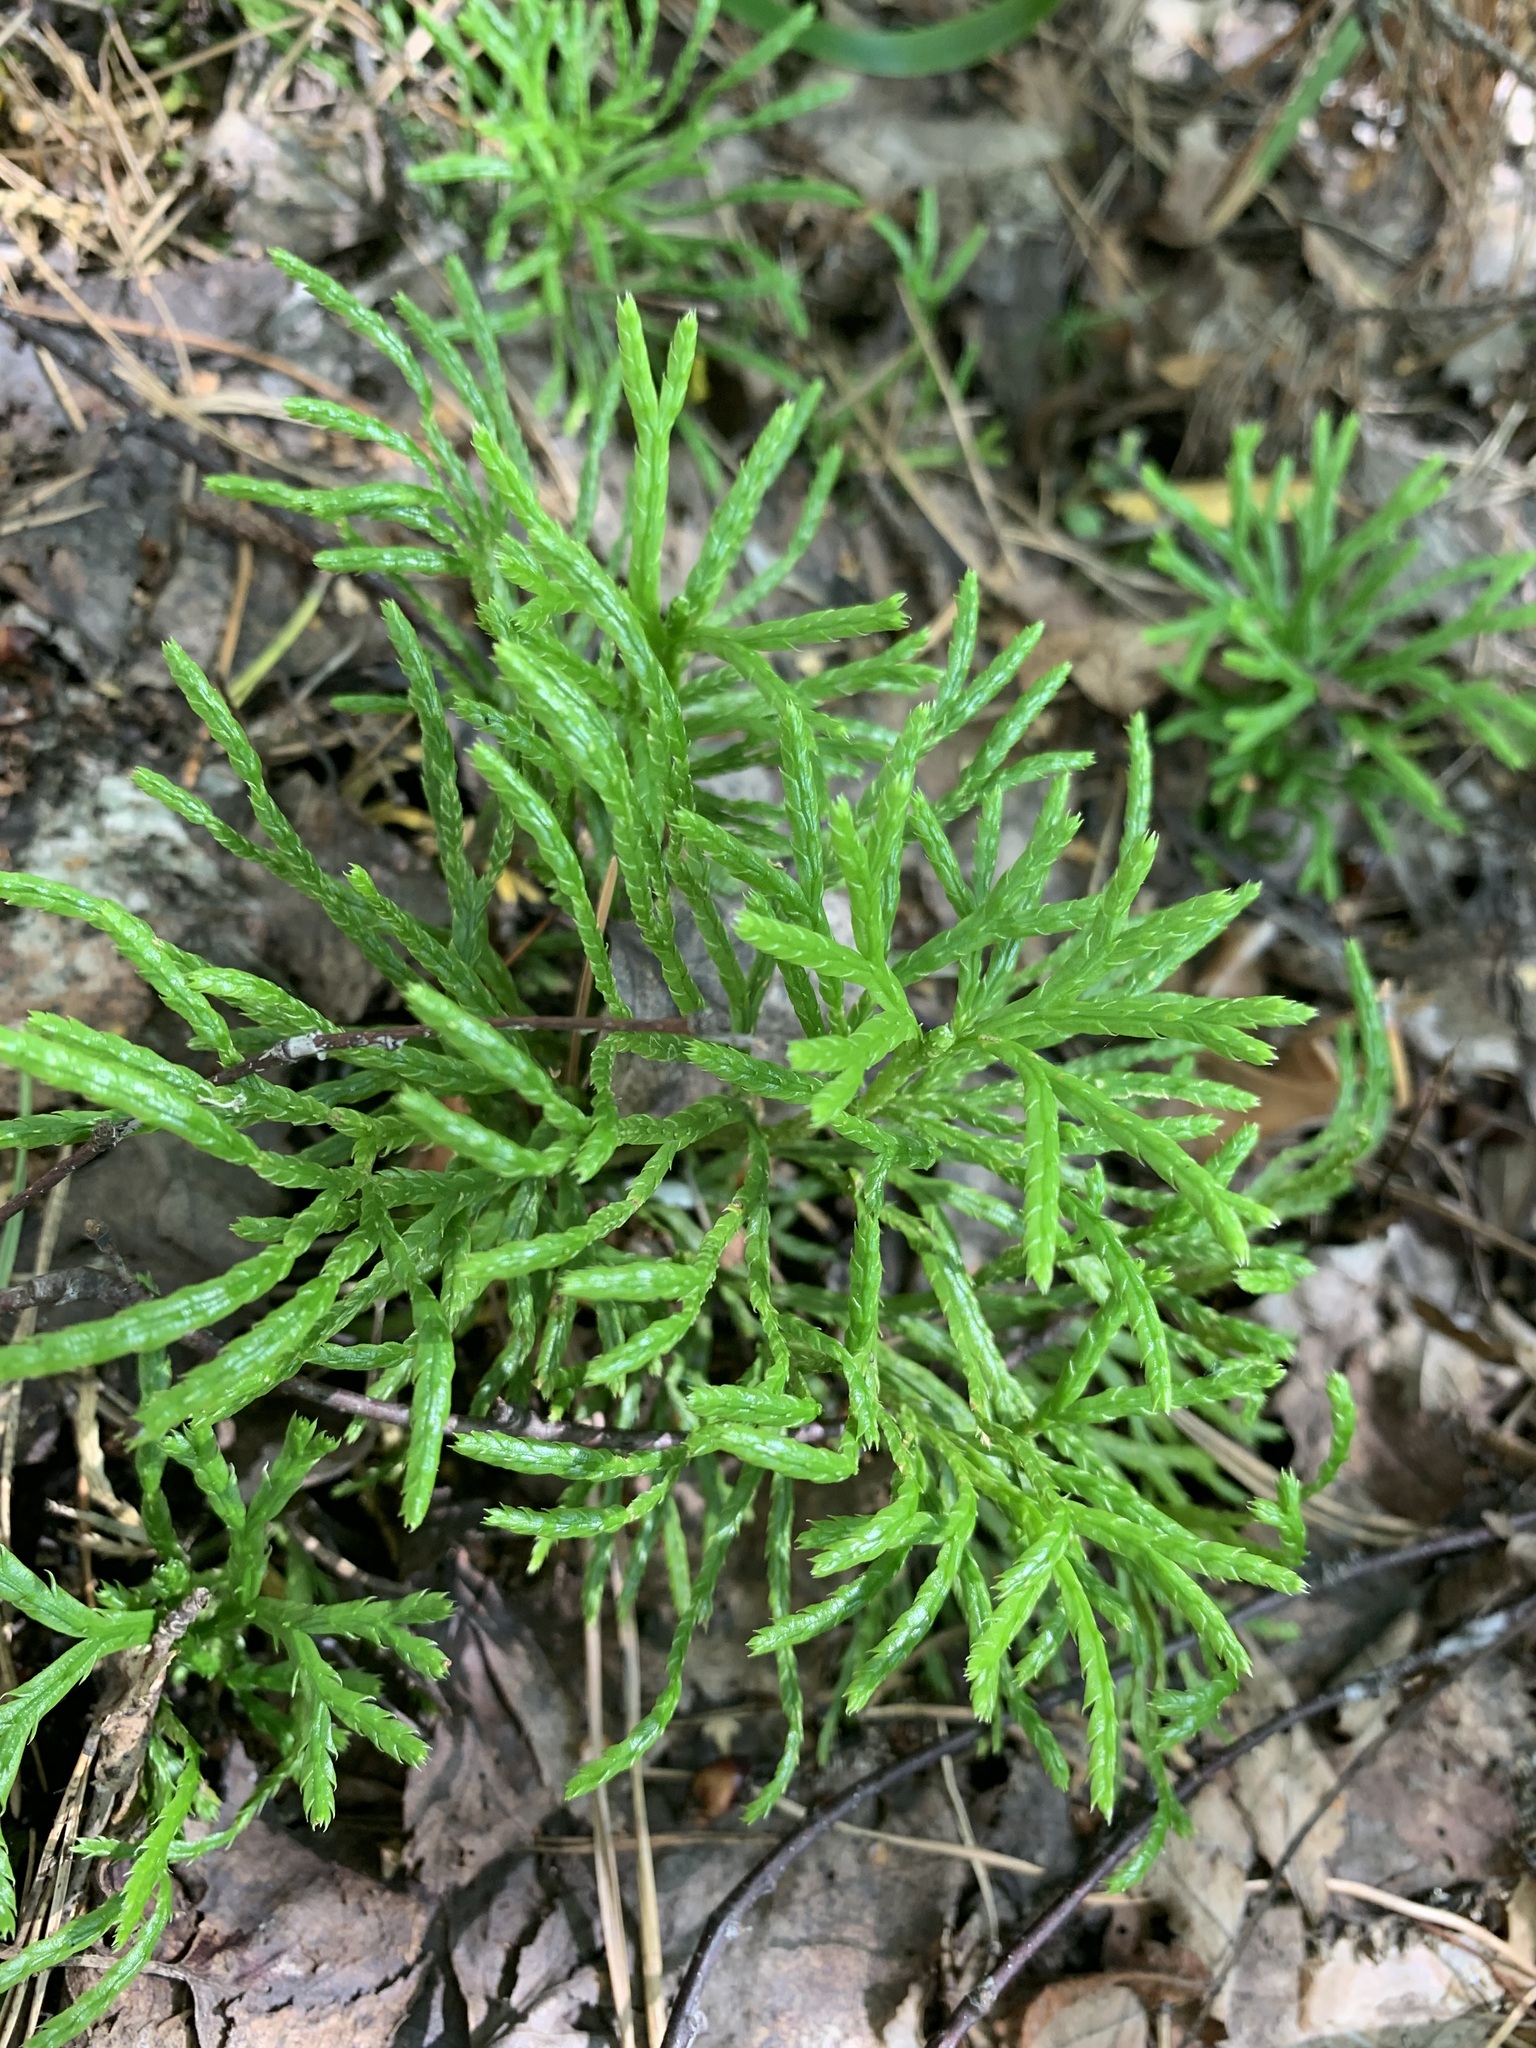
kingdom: Plantae
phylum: Tracheophyta
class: Lycopodiopsida
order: Lycopodiales
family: Lycopodiaceae
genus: Diphasiastrum
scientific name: Diphasiastrum complanatum
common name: Northern running-pine
